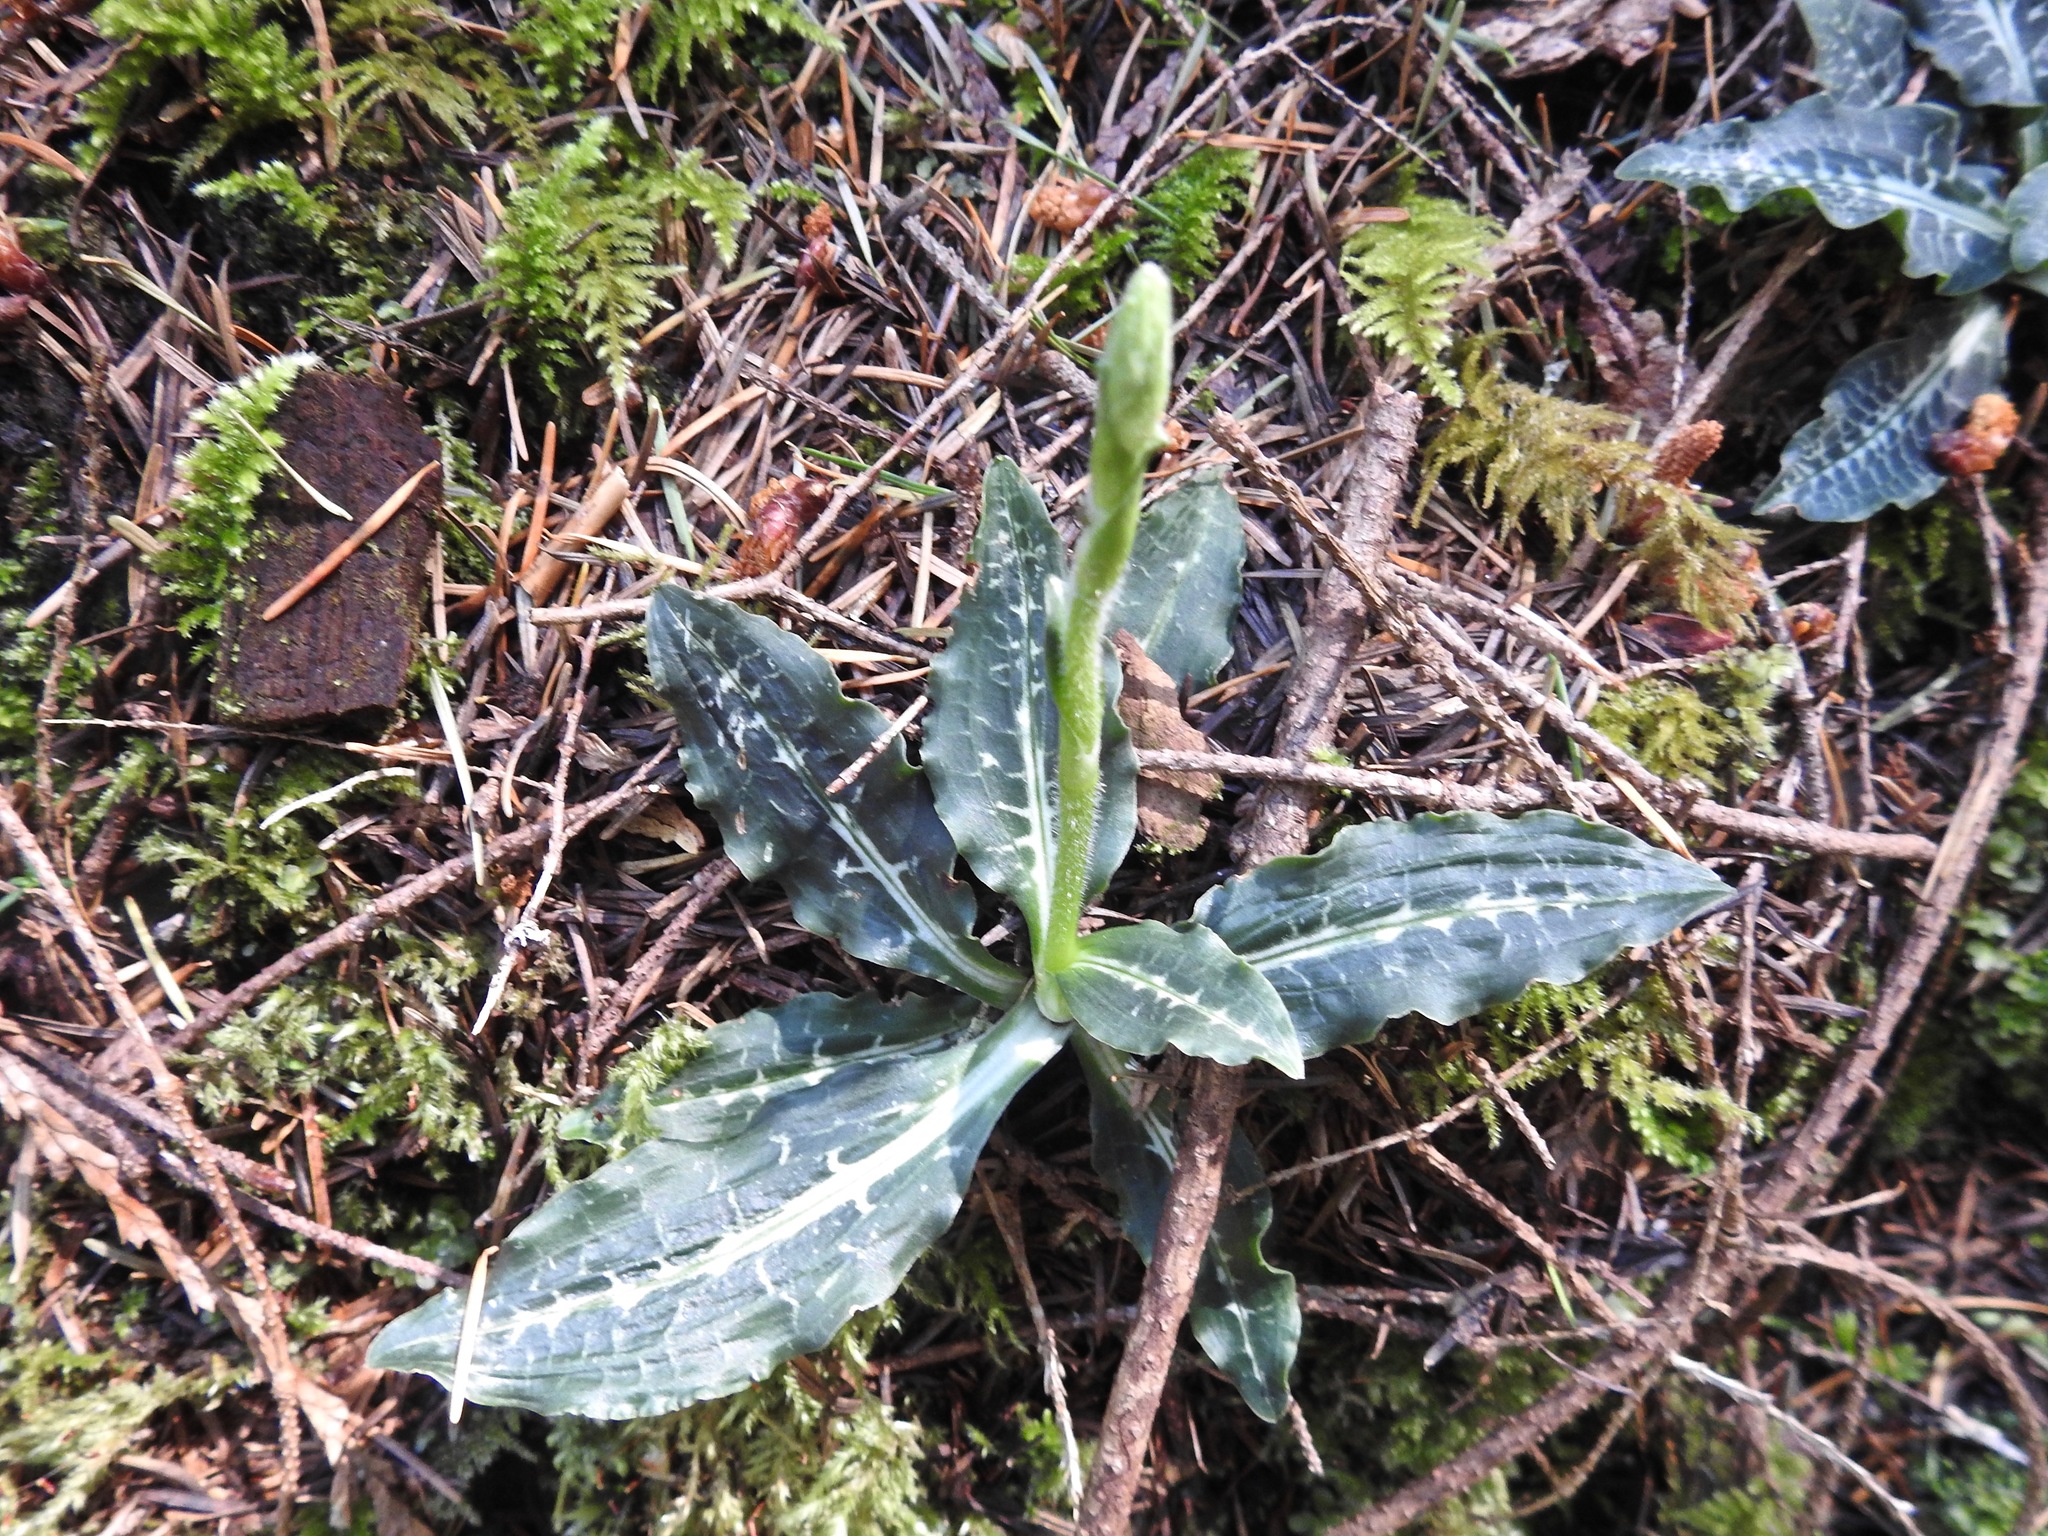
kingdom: Plantae
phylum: Tracheophyta
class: Liliopsida
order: Asparagales
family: Orchidaceae
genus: Goodyera
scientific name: Goodyera oblongifolia
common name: Giant rattlesnake-plantain
